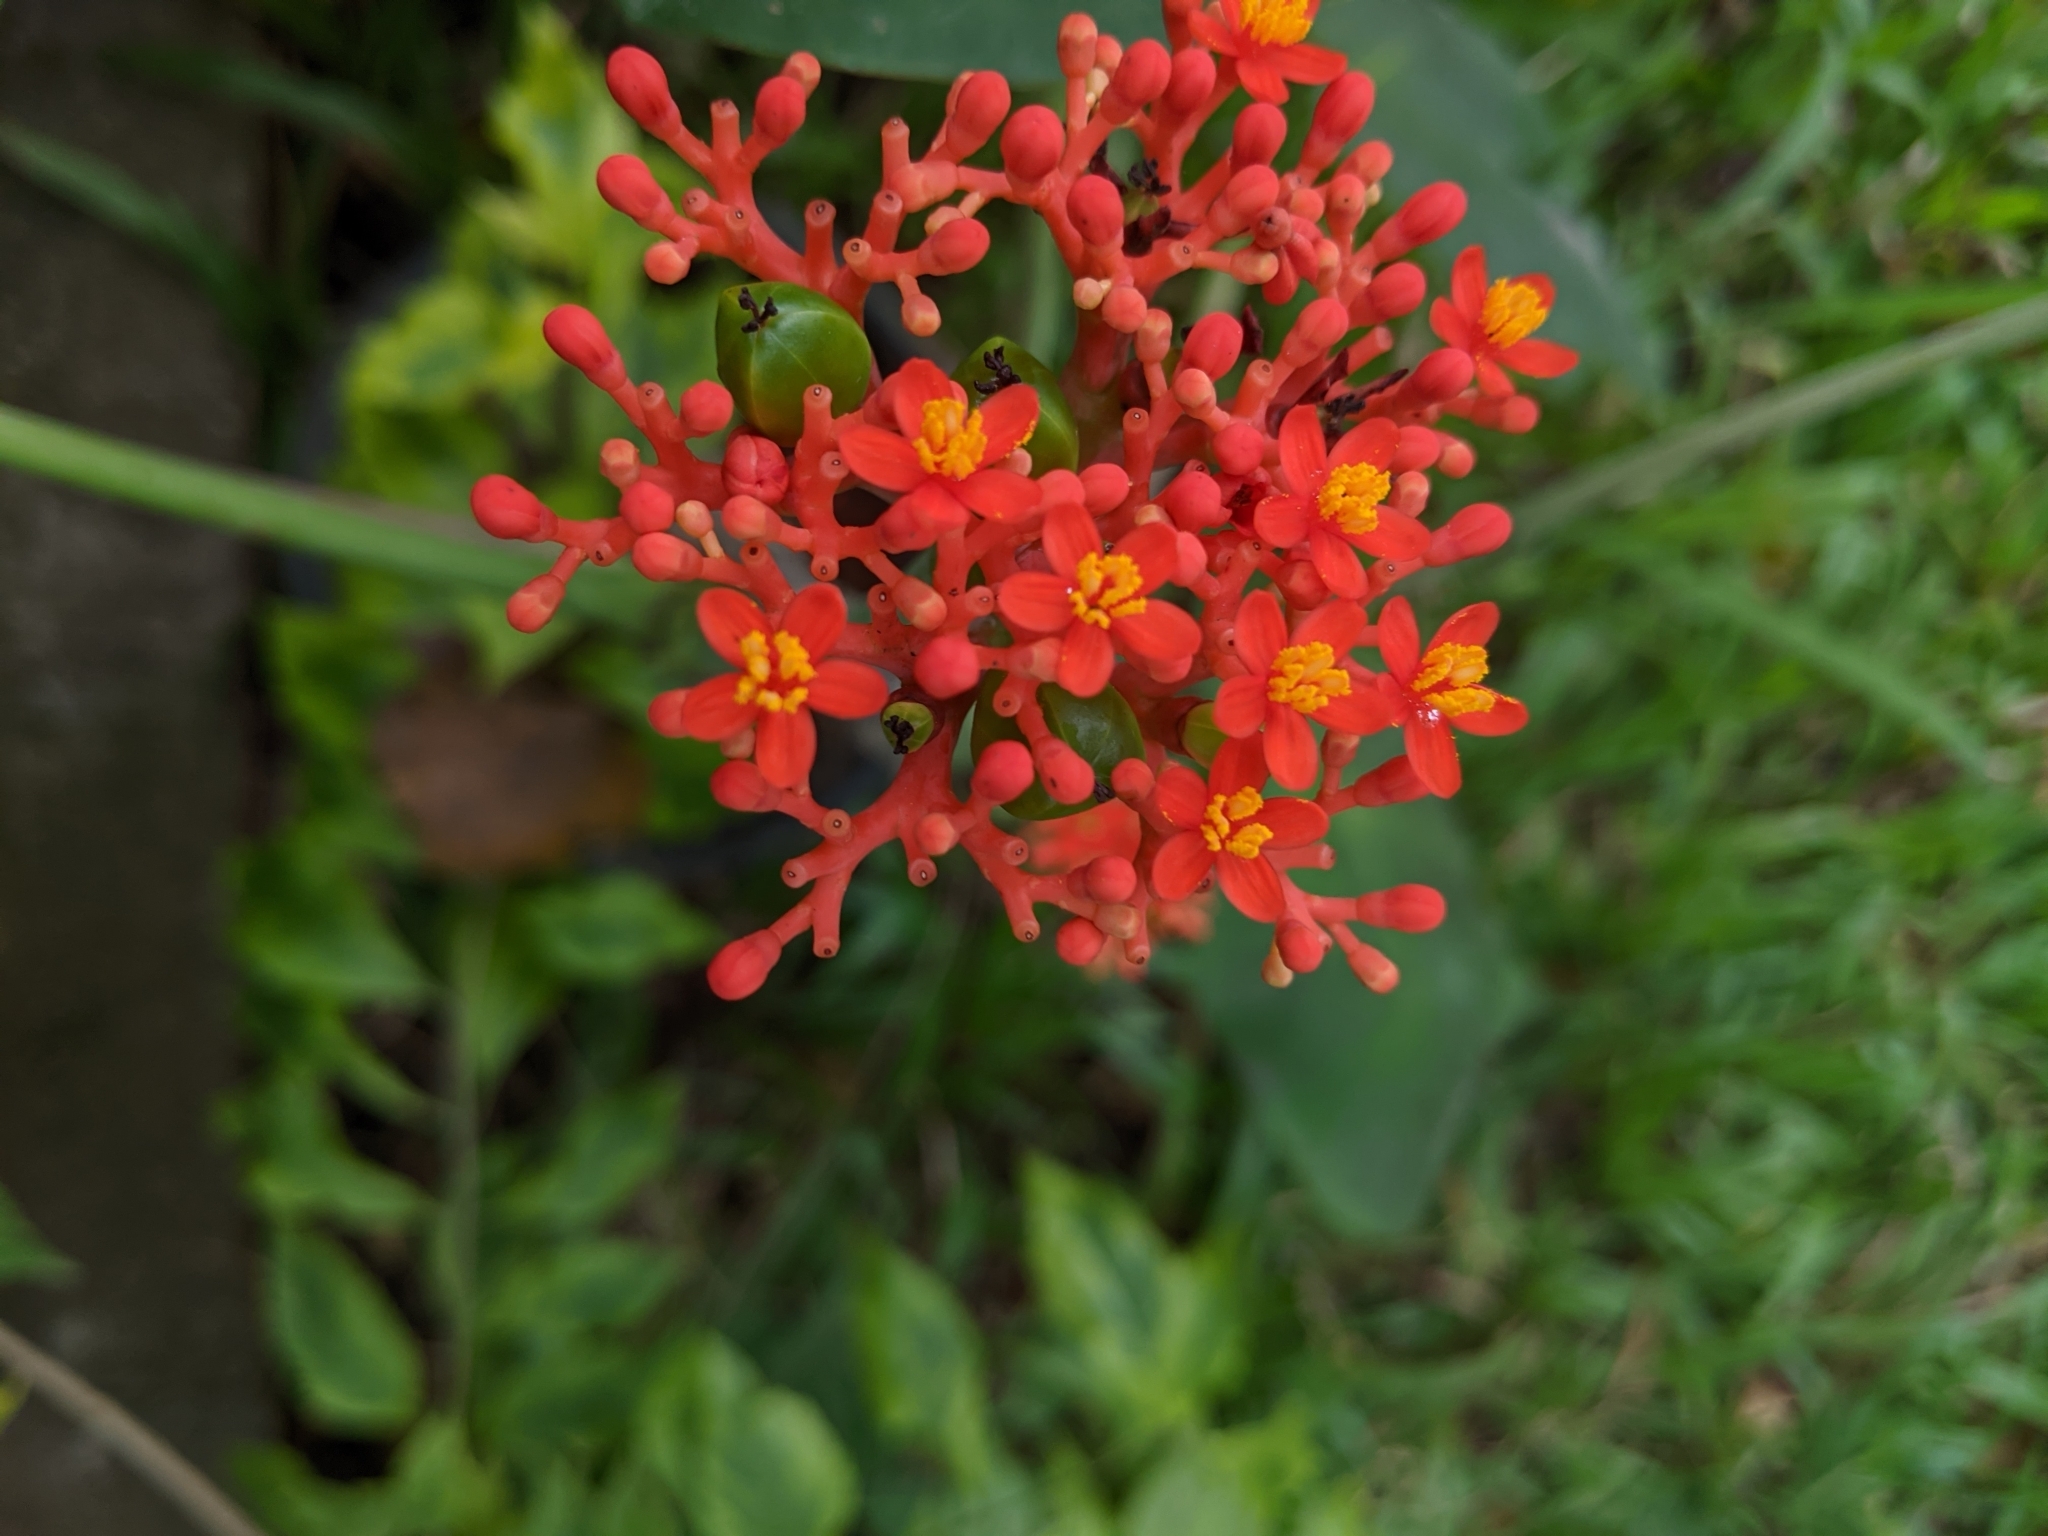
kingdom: Plantae
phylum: Tracheophyta
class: Magnoliopsida
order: Malpighiales
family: Euphorbiaceae
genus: Jatropha
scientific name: Jatropha podagrica
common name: Gout stalk
